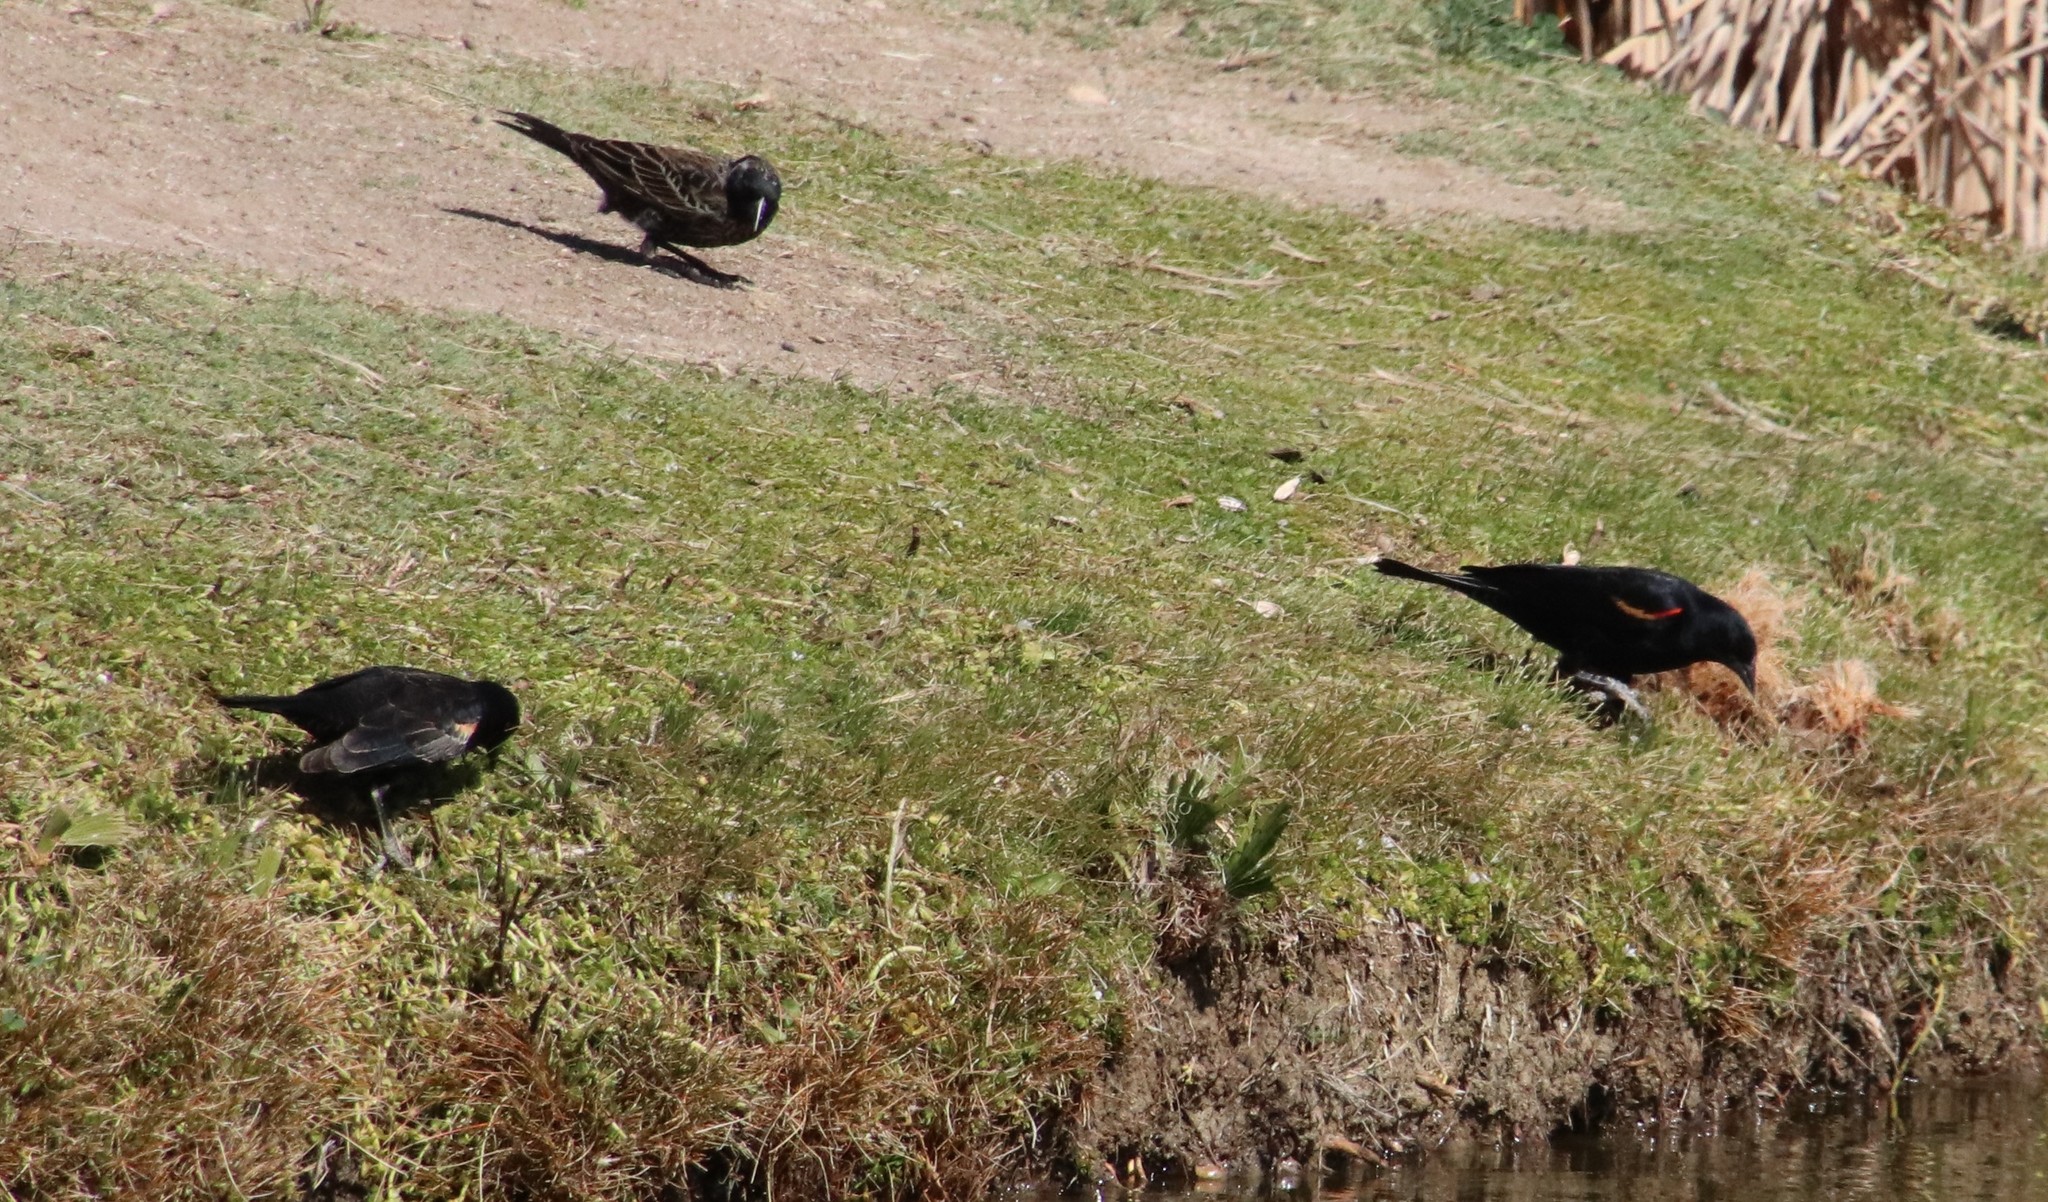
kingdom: Animalia
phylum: Chordata
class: Aves
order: Passeriformes
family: Icteridae
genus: Agelaius
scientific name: Agelaius phoeniceus
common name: Red-winged blackbird
